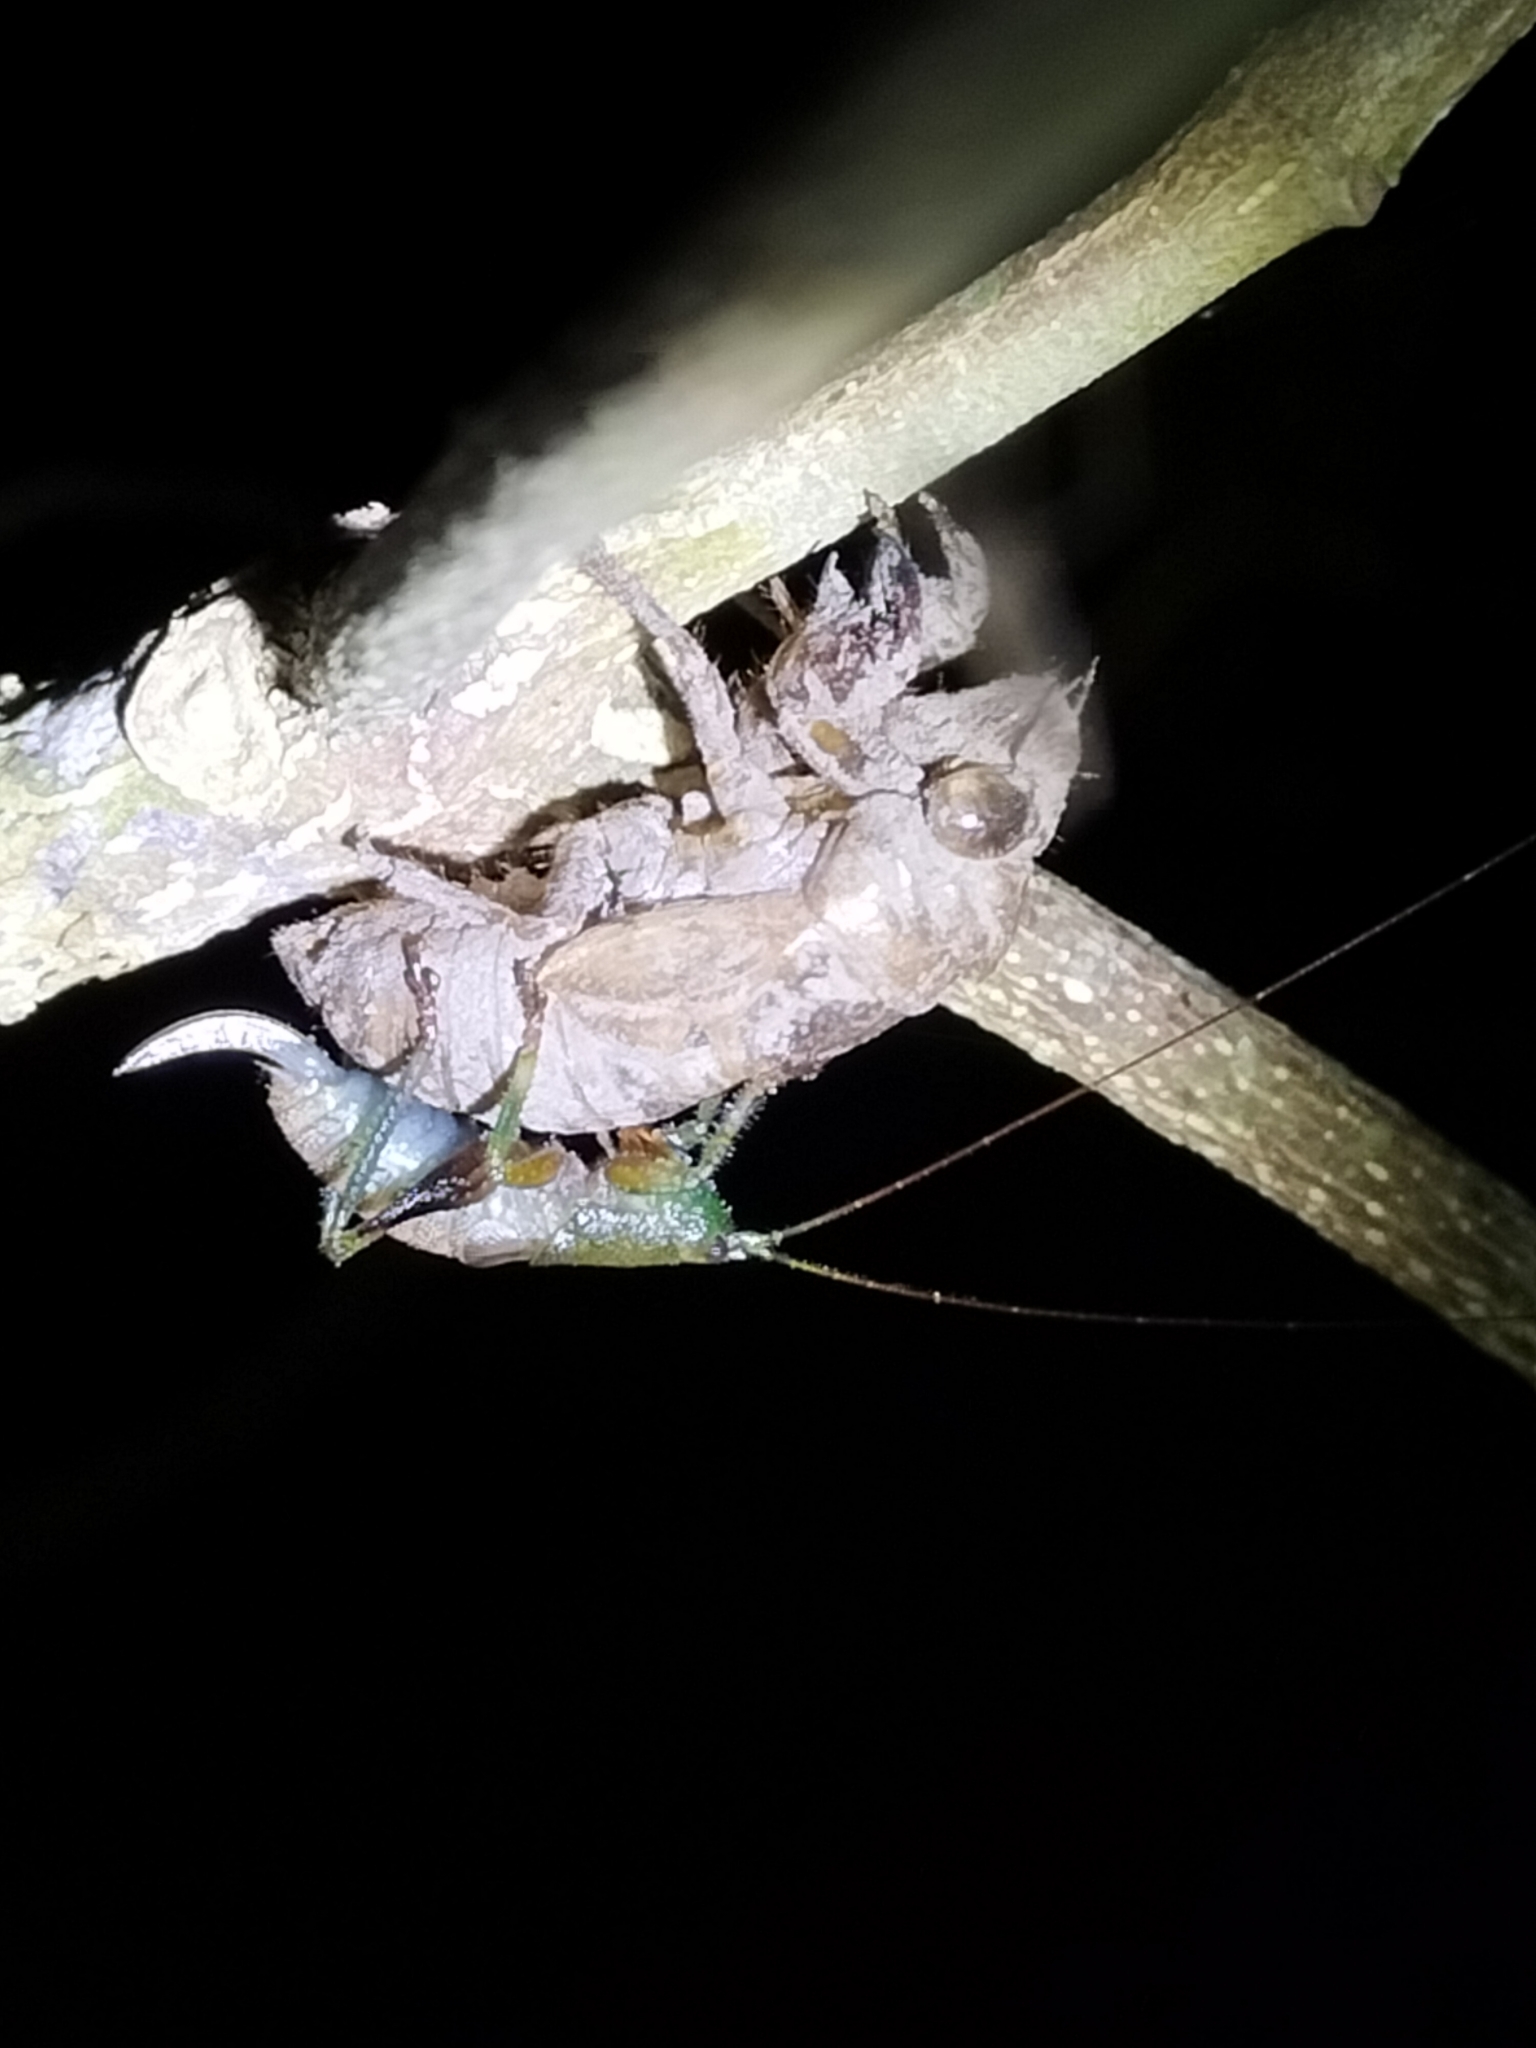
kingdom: Animalia
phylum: Arthropoda
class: Insecta
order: Orthoptera
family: Tettigoniidae
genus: Ingrischagraecia
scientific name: Ingrischagraecia iterika
